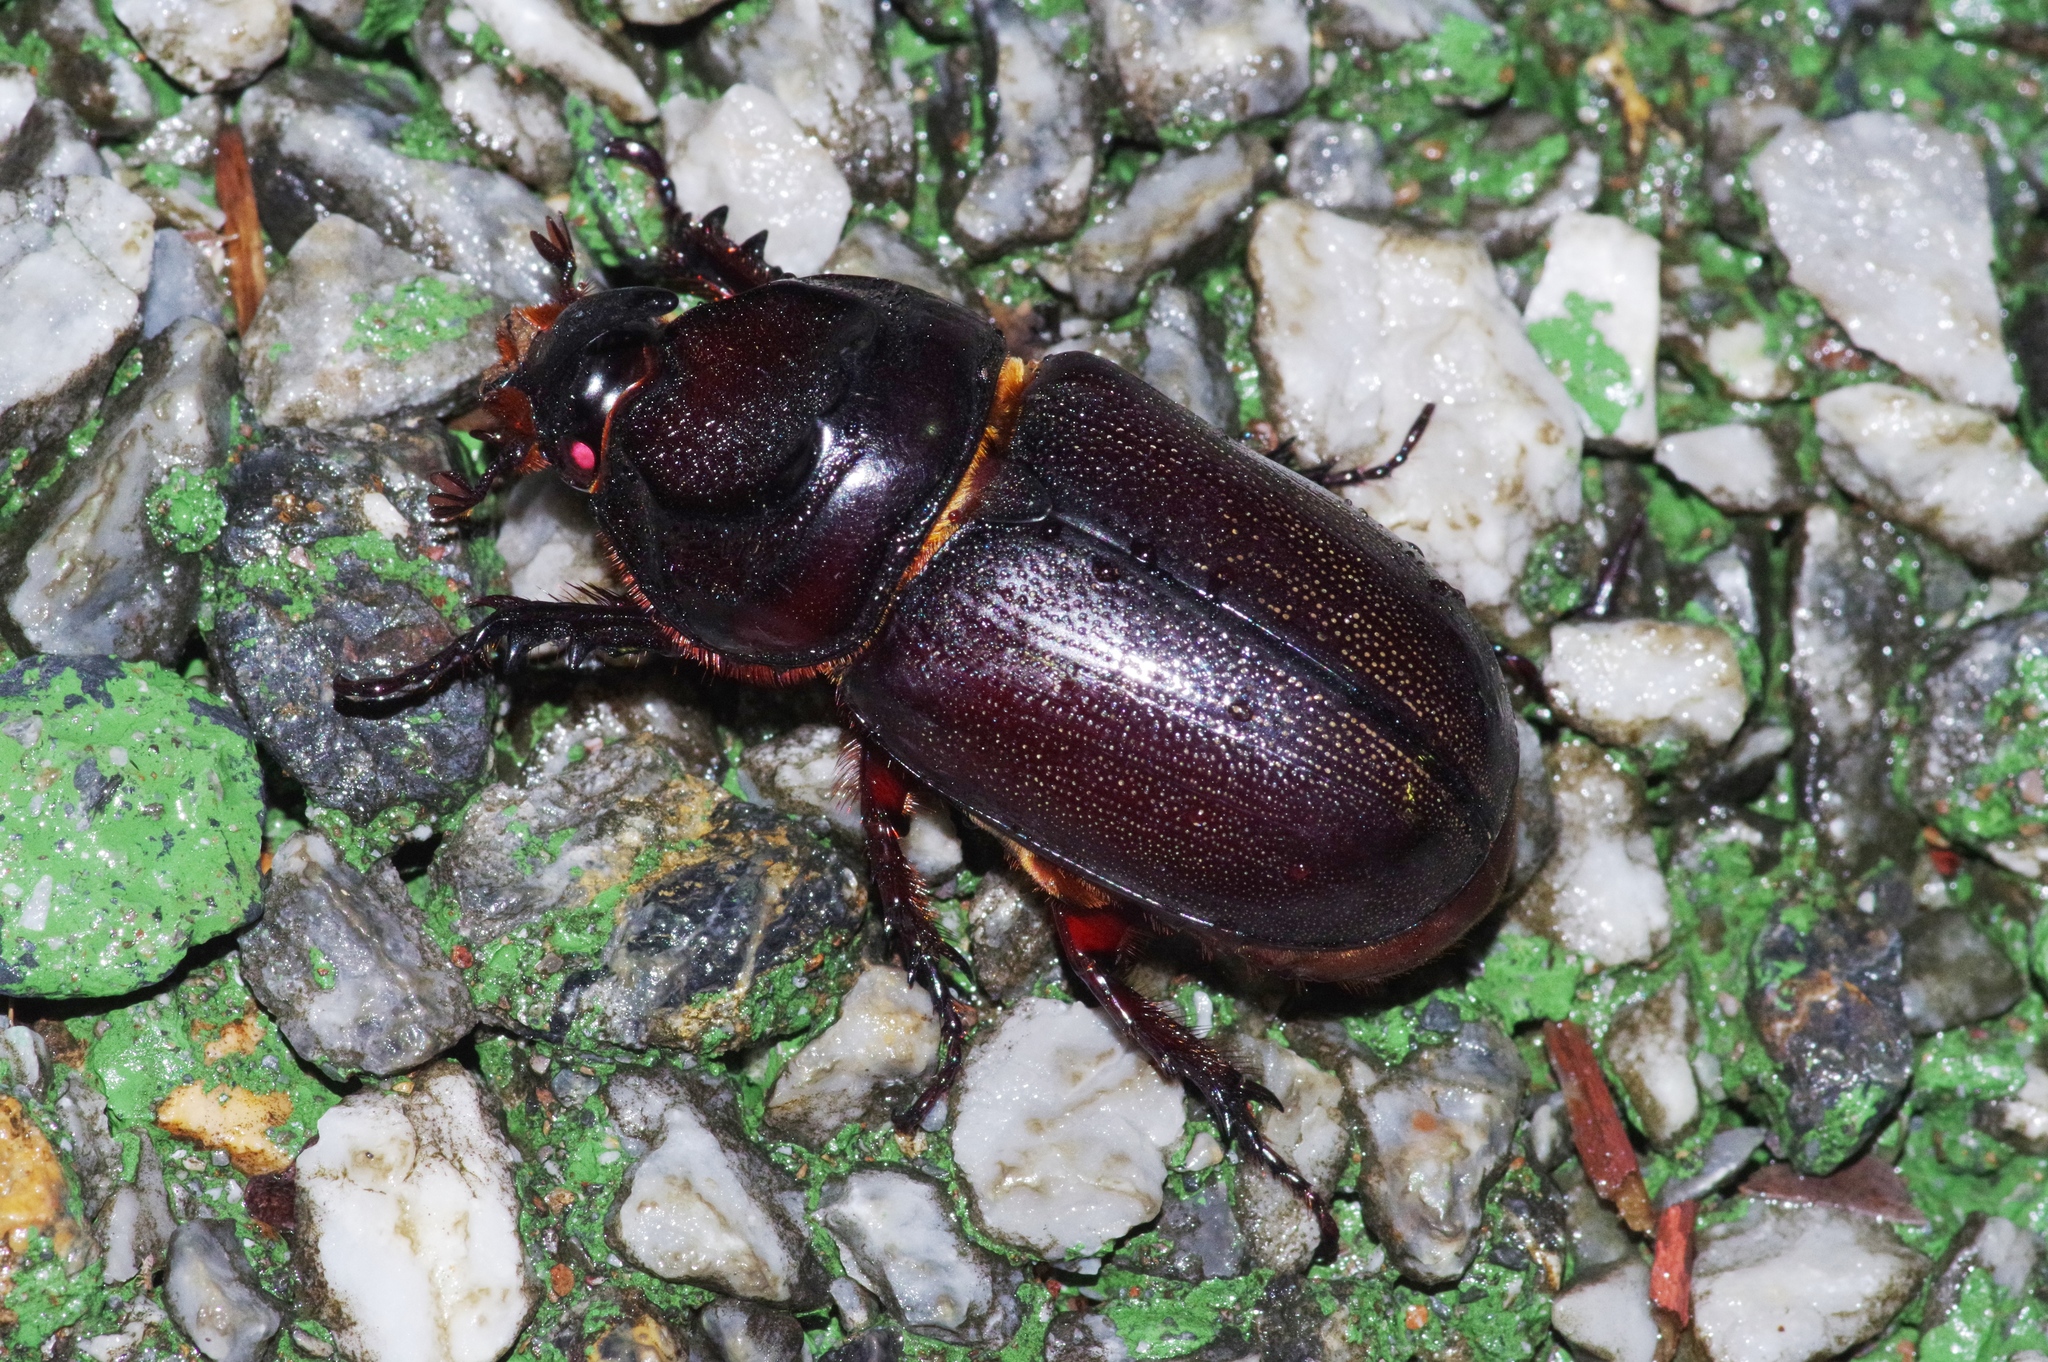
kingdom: Animalia
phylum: Arthropoda
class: Insecta
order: Coleoptera
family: Scarabaeidae
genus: Oryctes
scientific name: Oryctes rhinoceros
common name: Coconut rhinoceros beetle
